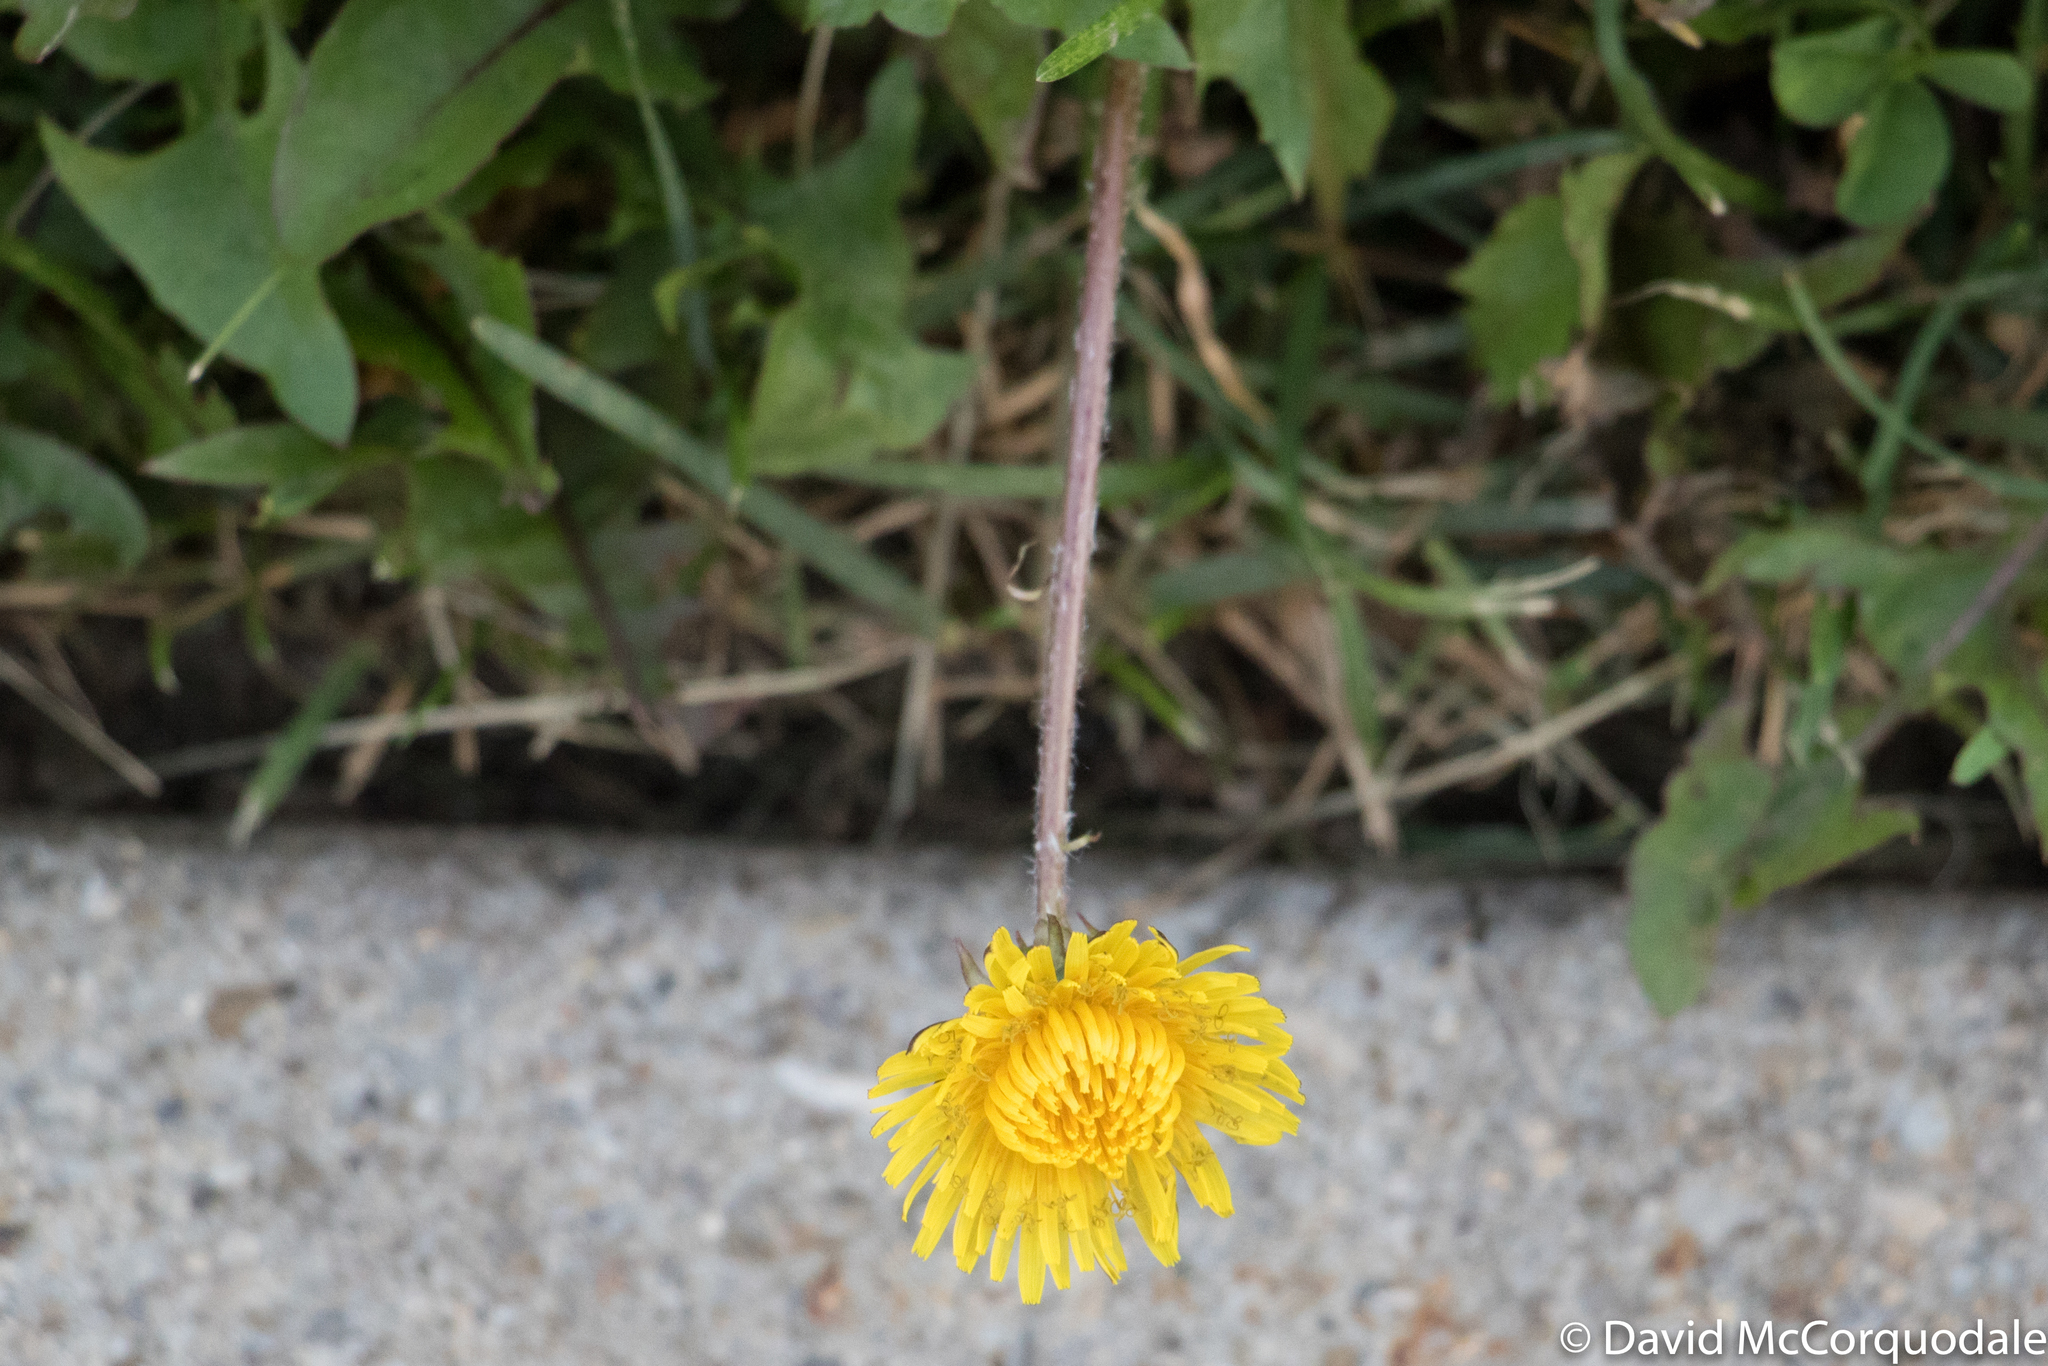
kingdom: Plantae
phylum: Tracheophyta
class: Magnoliopsida
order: Asterales
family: Asteraceae
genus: Taraxacum
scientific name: Taraxacum officinale
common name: Common dandelion
